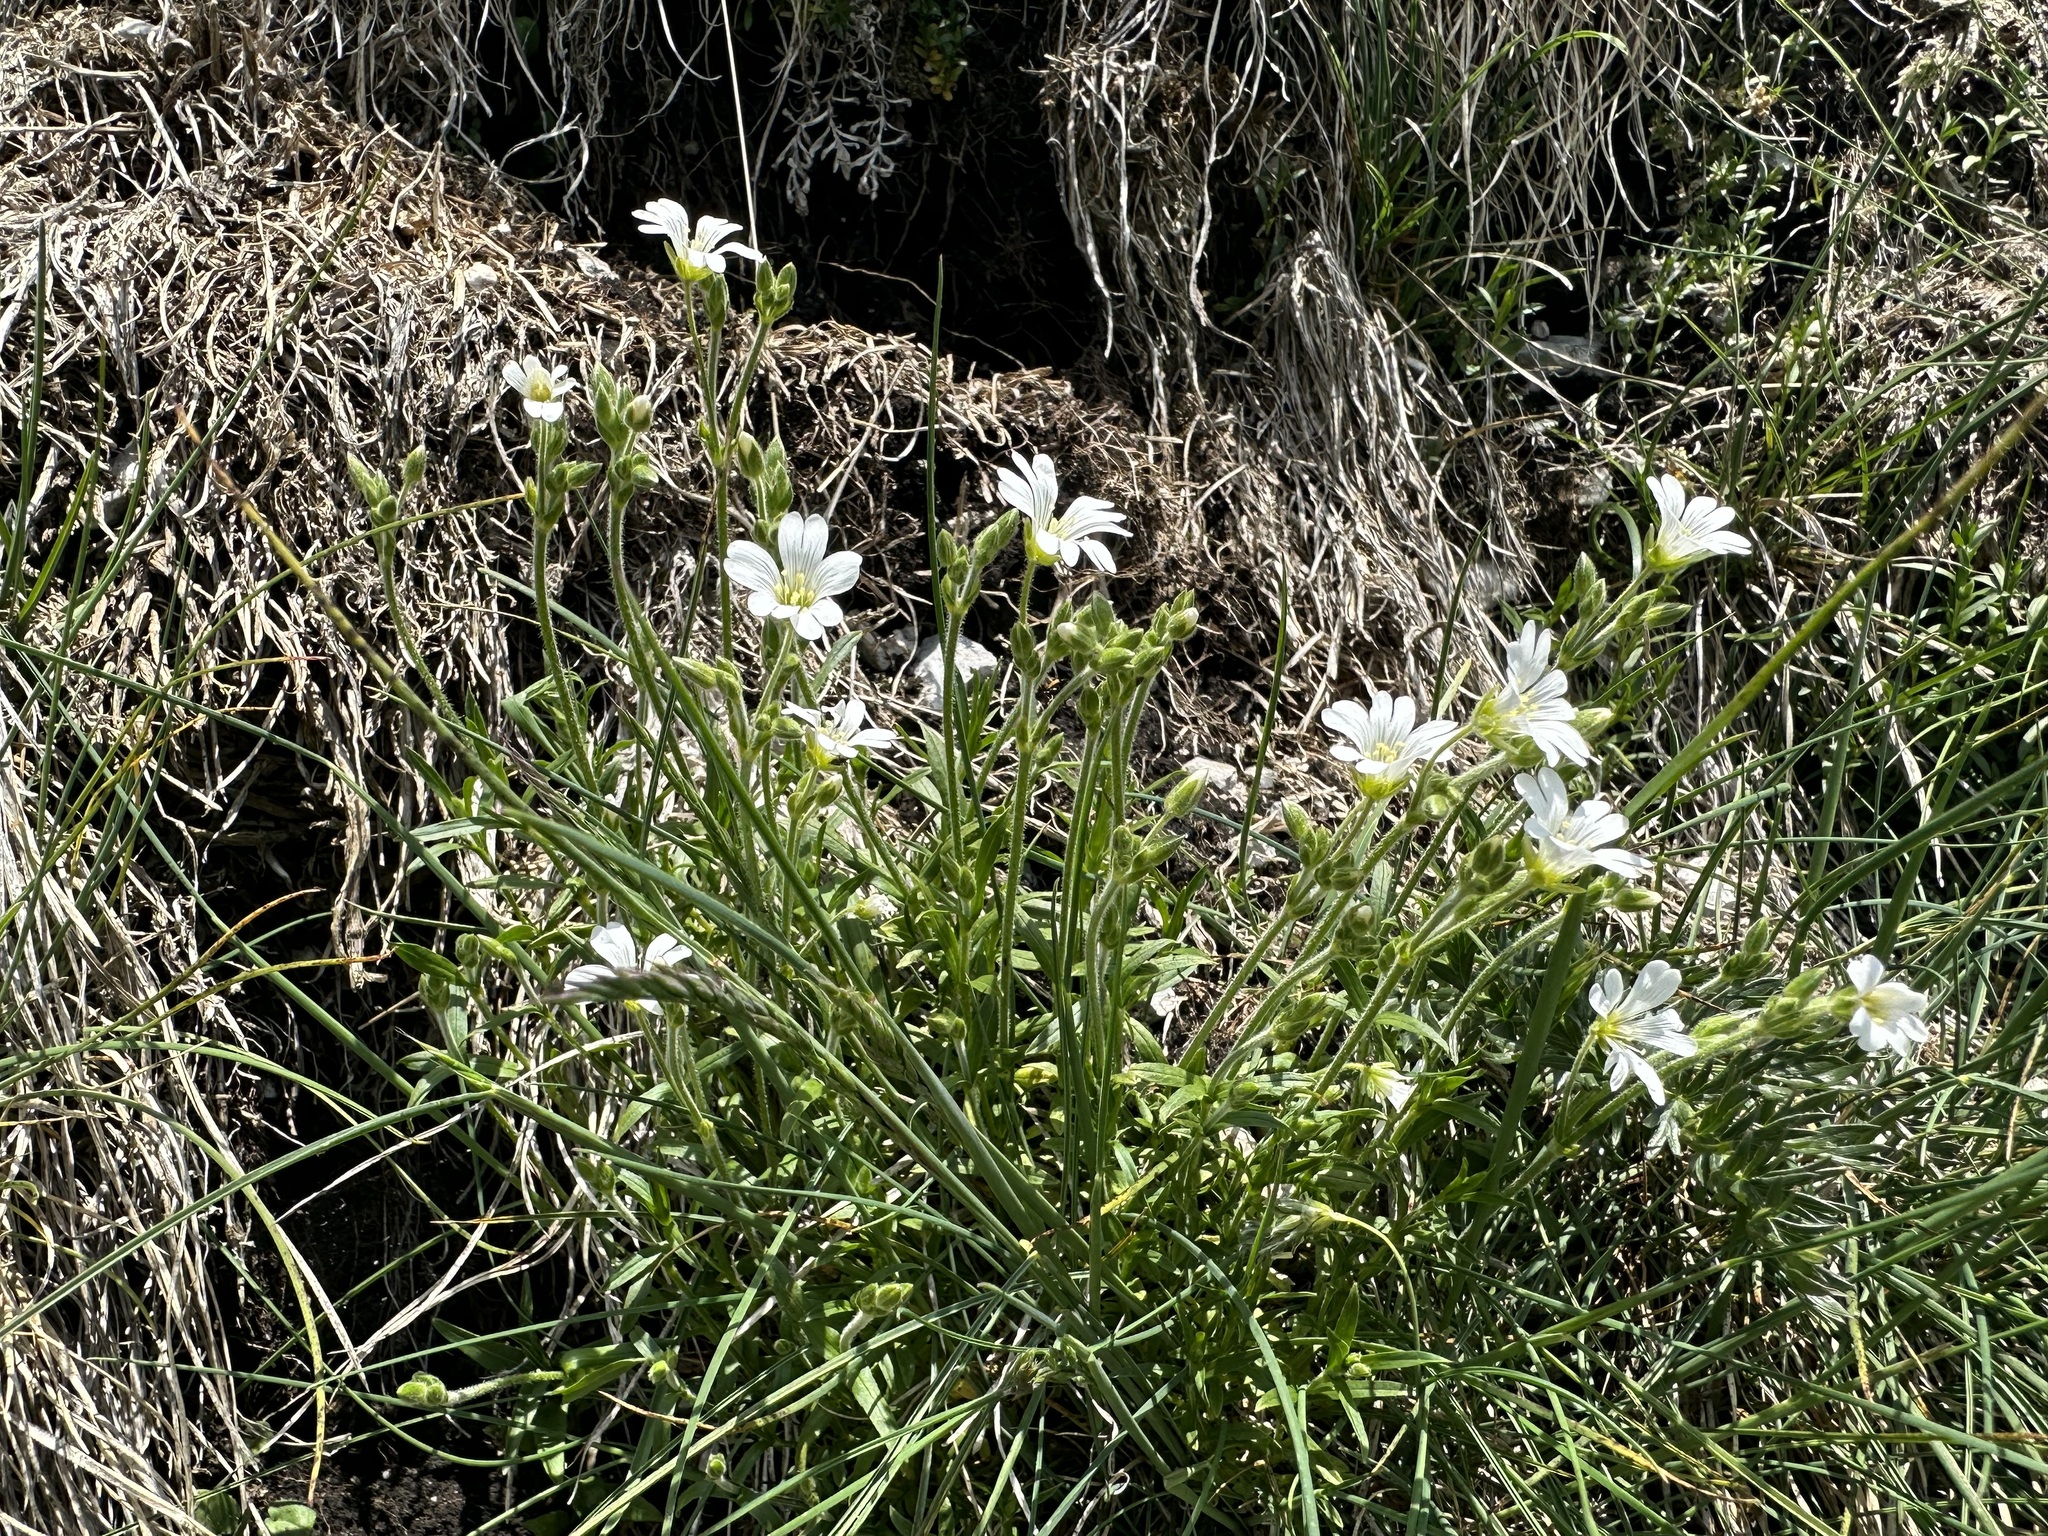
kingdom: Plantae
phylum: Tracheophyta
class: Magnoliopsida
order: Caryophyllales
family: Caryophyllaceae
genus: Cerastium
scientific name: Cerastium arvense
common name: Field mouse-ear
